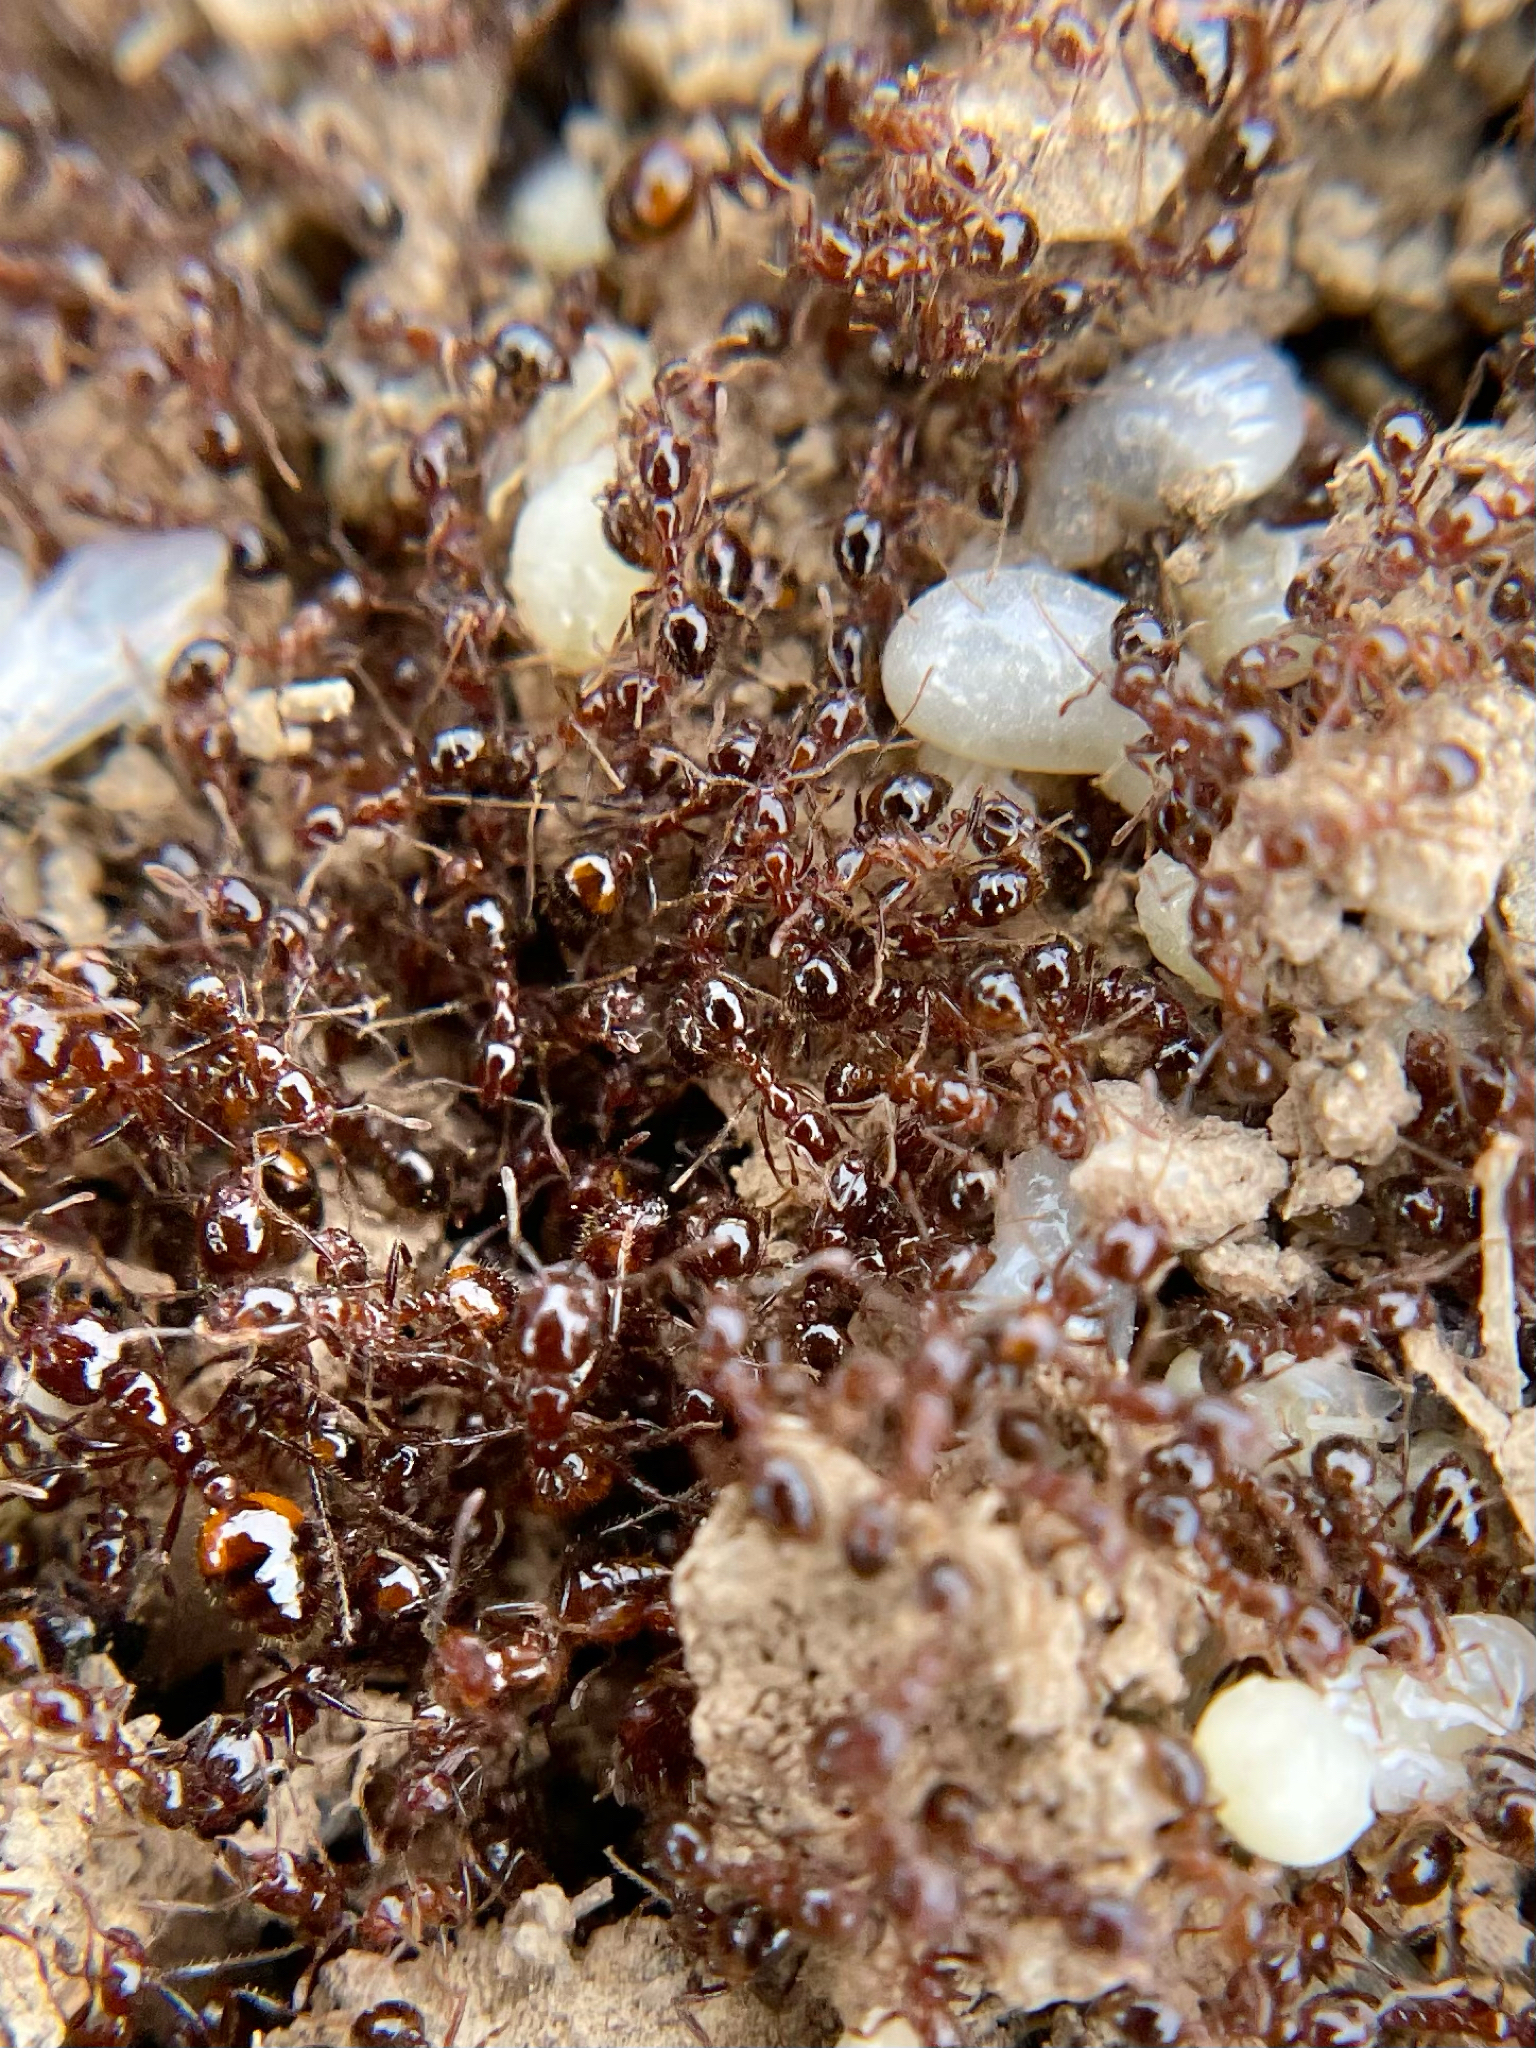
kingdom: Animalia
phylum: Arthropoda
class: Insecta
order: Hymenoptera
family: Formicidae
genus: Solenopsis
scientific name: Solenopsis
